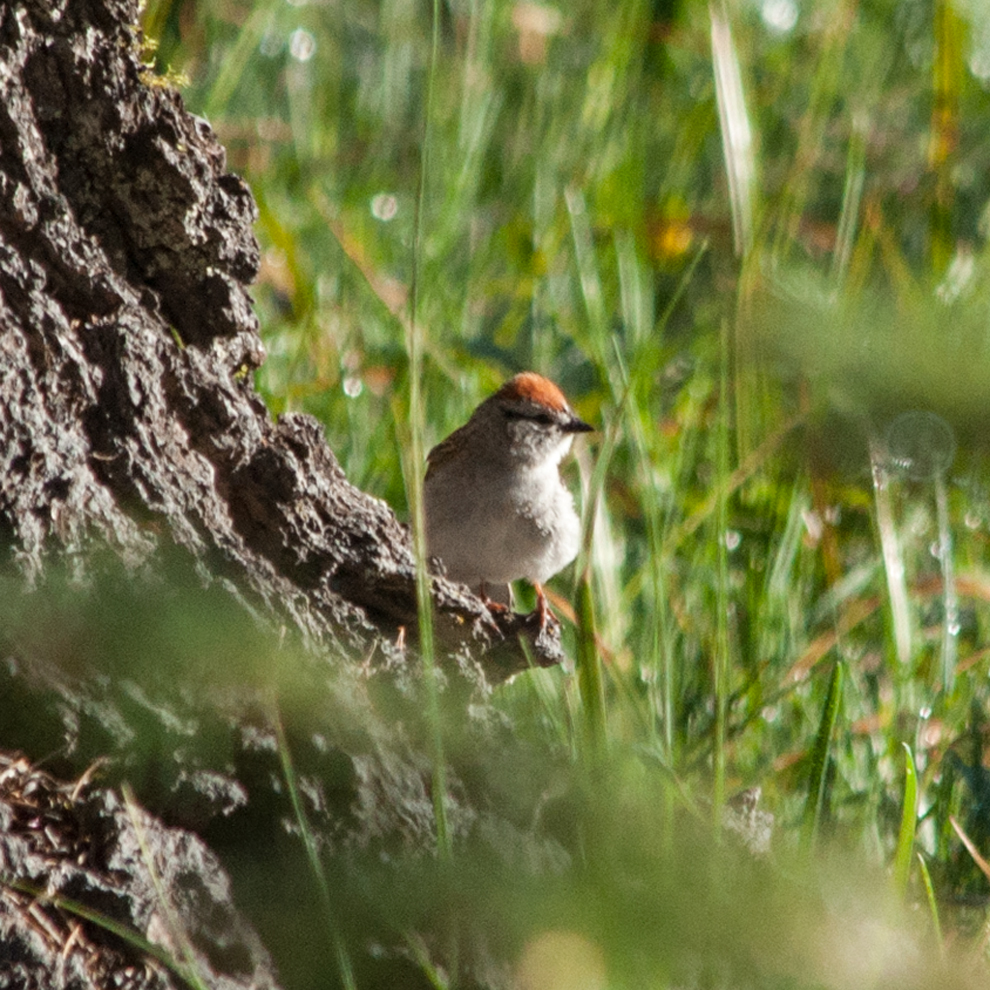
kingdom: Animalia
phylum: Chordata
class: Aves
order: Passeriformes
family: Passerellidae
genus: Spizella
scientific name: Spizella passerina
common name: Chipping sparrow
